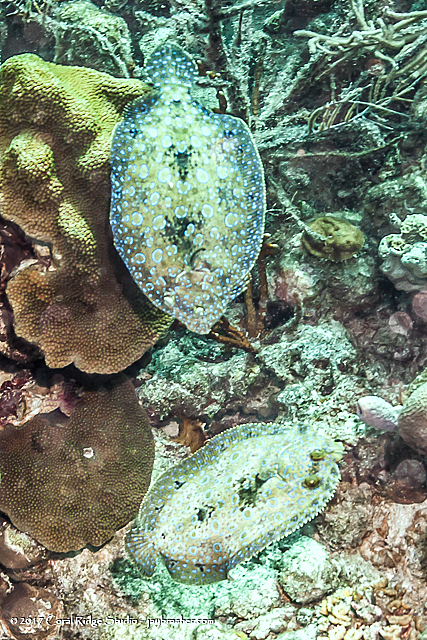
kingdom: Animalia
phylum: Chordata
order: Pleuronectiformes
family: Bothidae
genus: Bothus
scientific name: Bothus lunatus
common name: Peacock flounder
